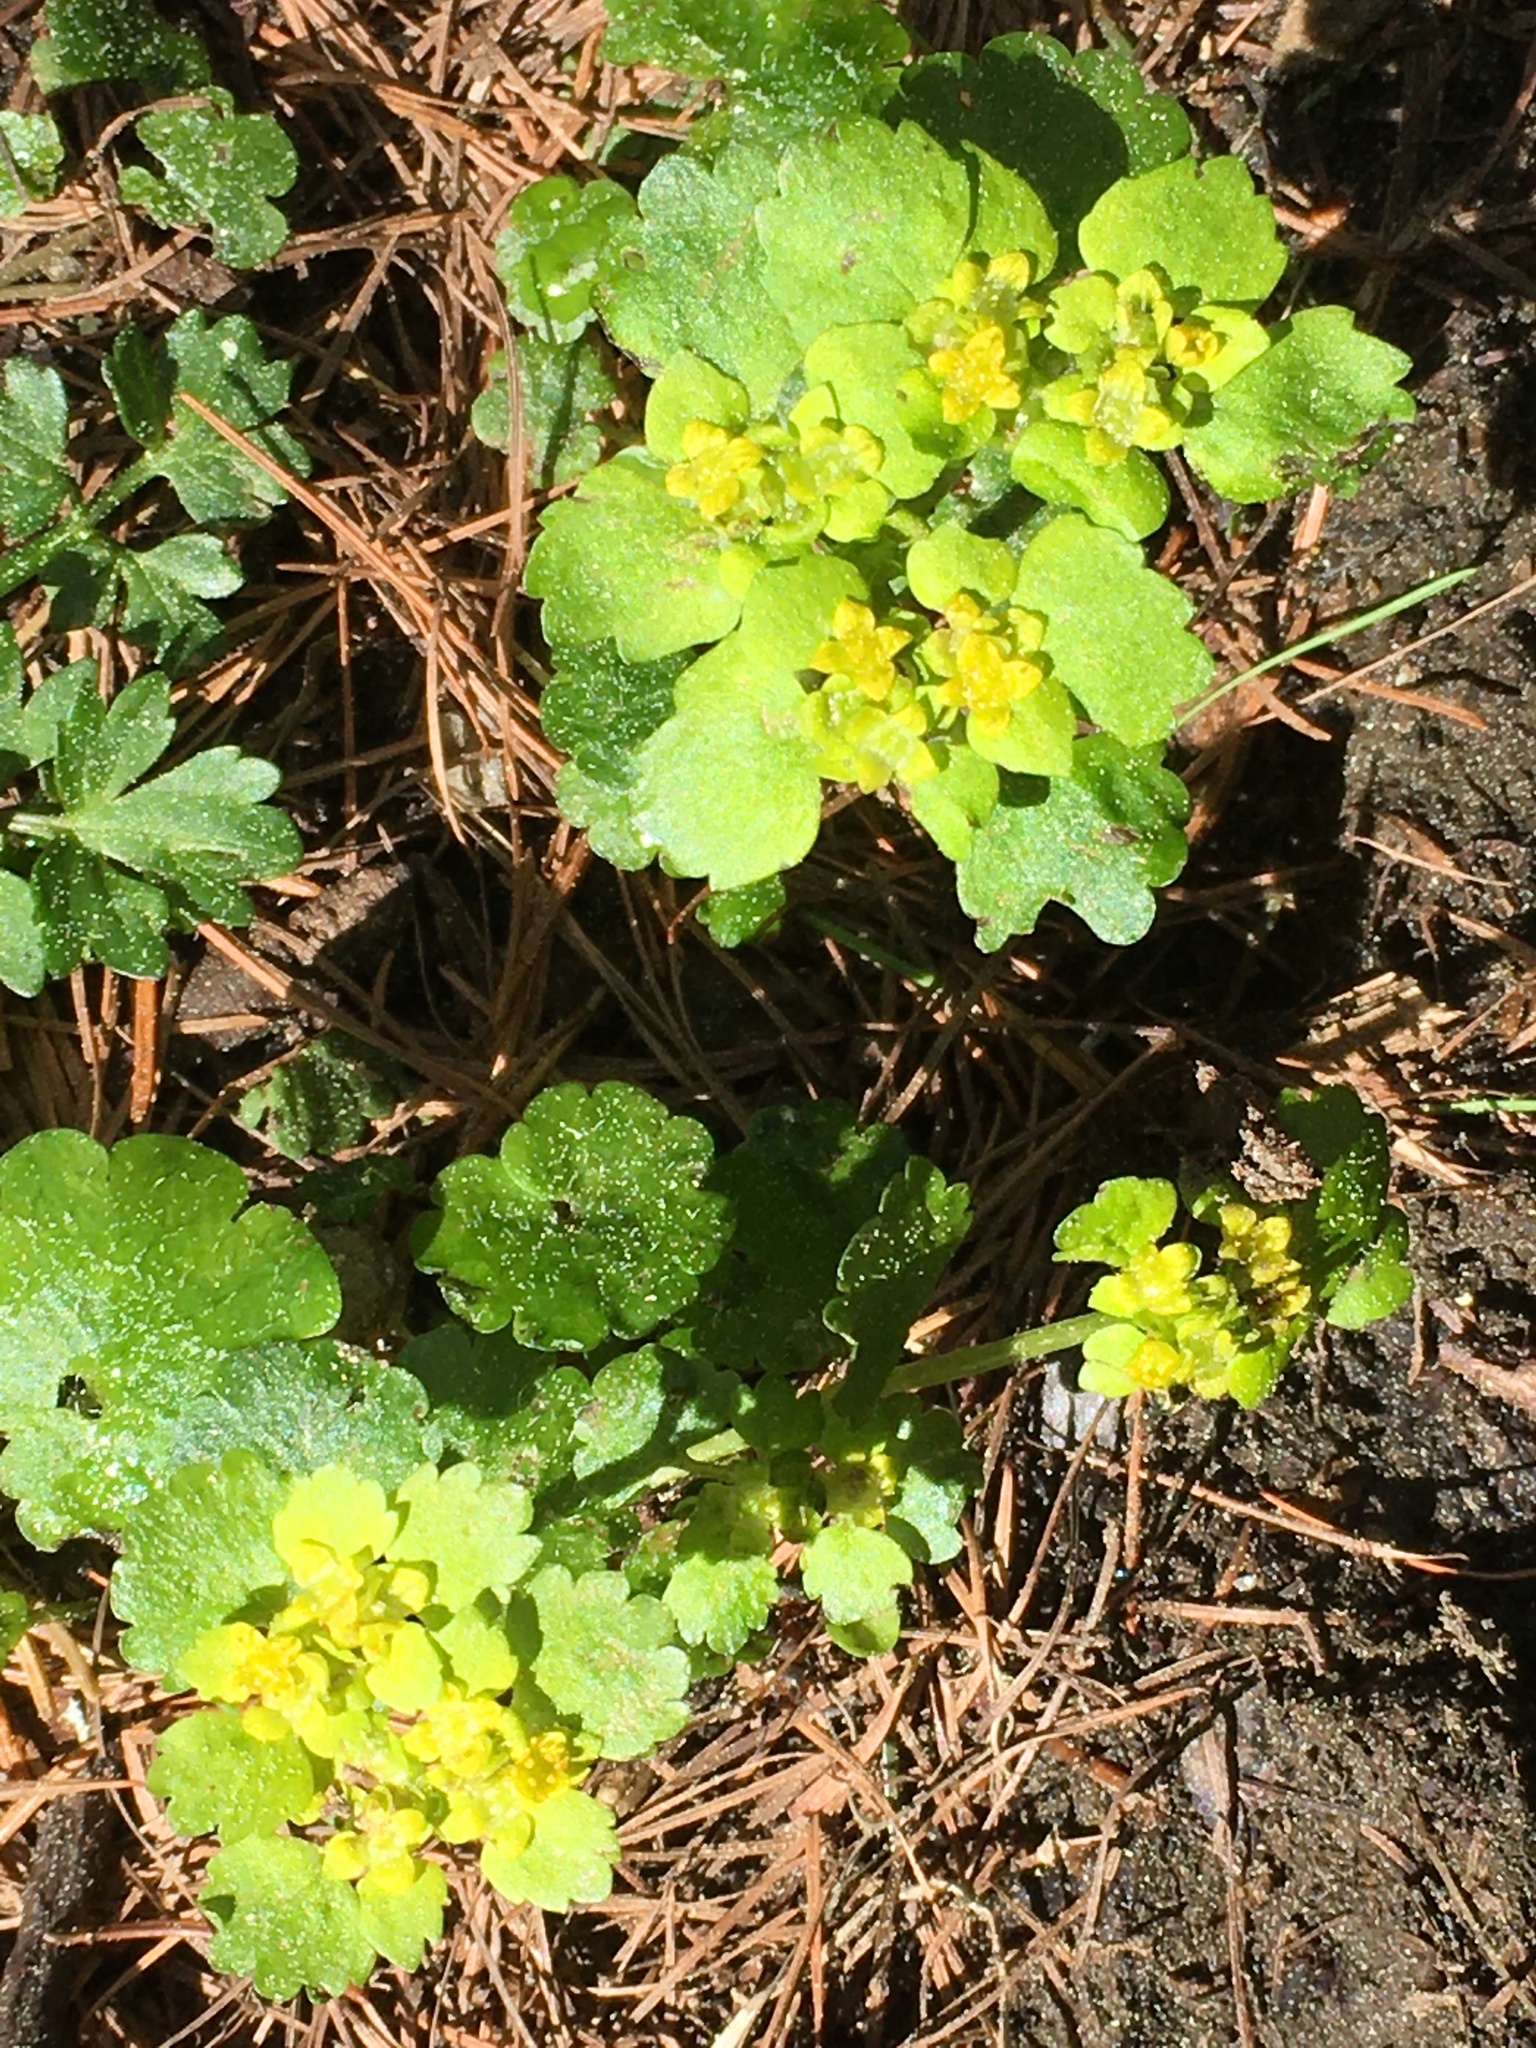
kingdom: Plantae
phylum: Tracheophyta
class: Magnoliopsida
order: Saxifragales
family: Saxifragaceae
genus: Chrysosplenium
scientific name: Chrysosplenium alternifolium
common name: Alternate-leaved golden-saxifrage
